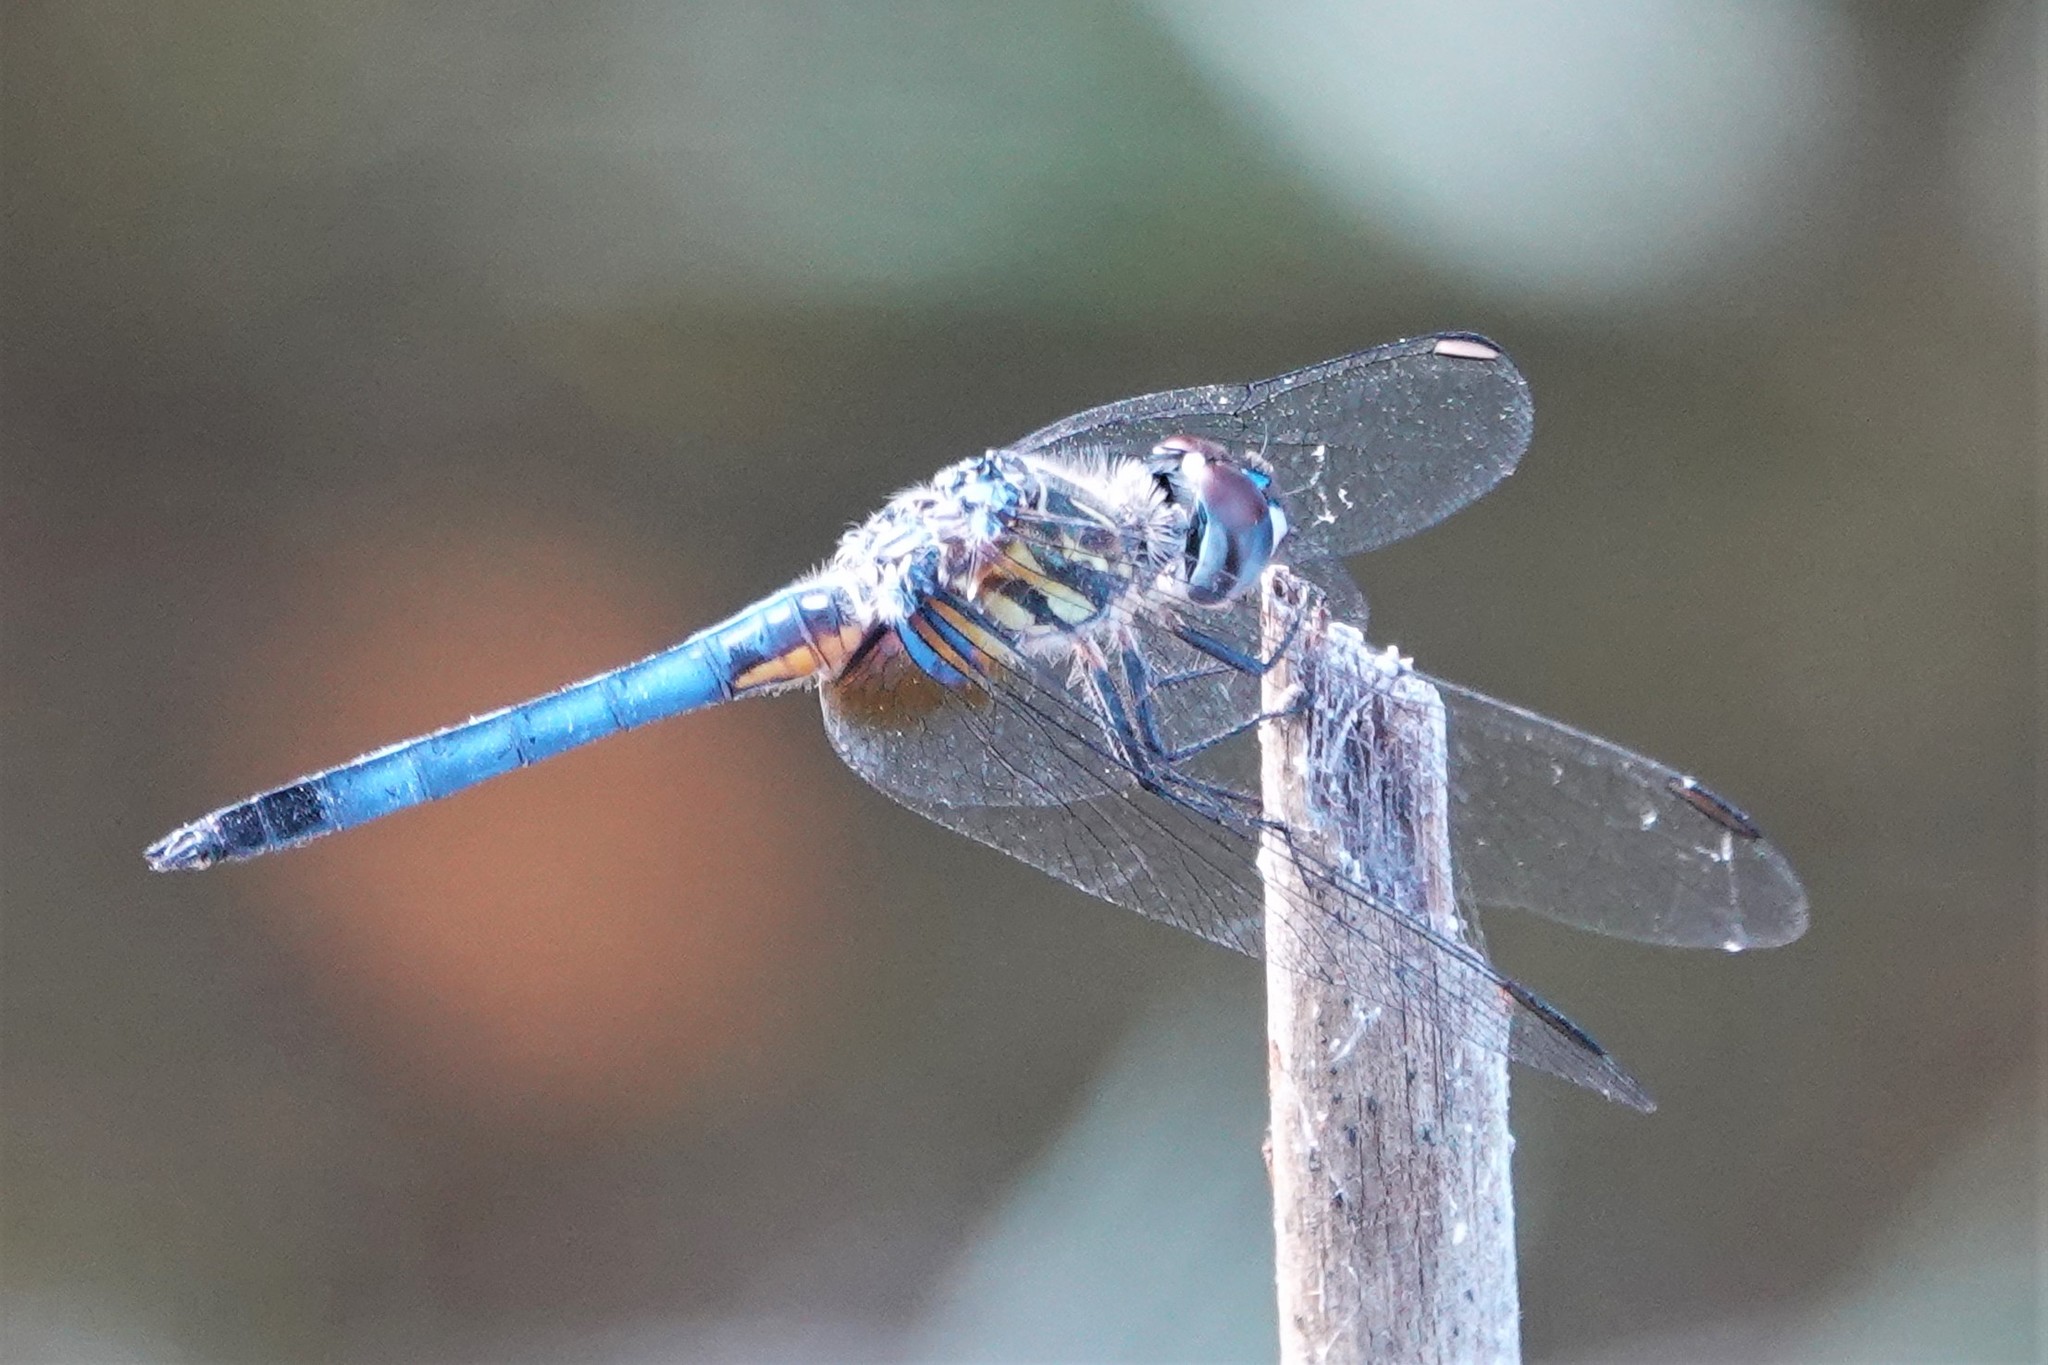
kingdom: Animalia
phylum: Arthropoda
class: Insecta
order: Odonata
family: Libellulidae
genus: Pachydiplax
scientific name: Pachydiplax longipennis
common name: Blue dasher
